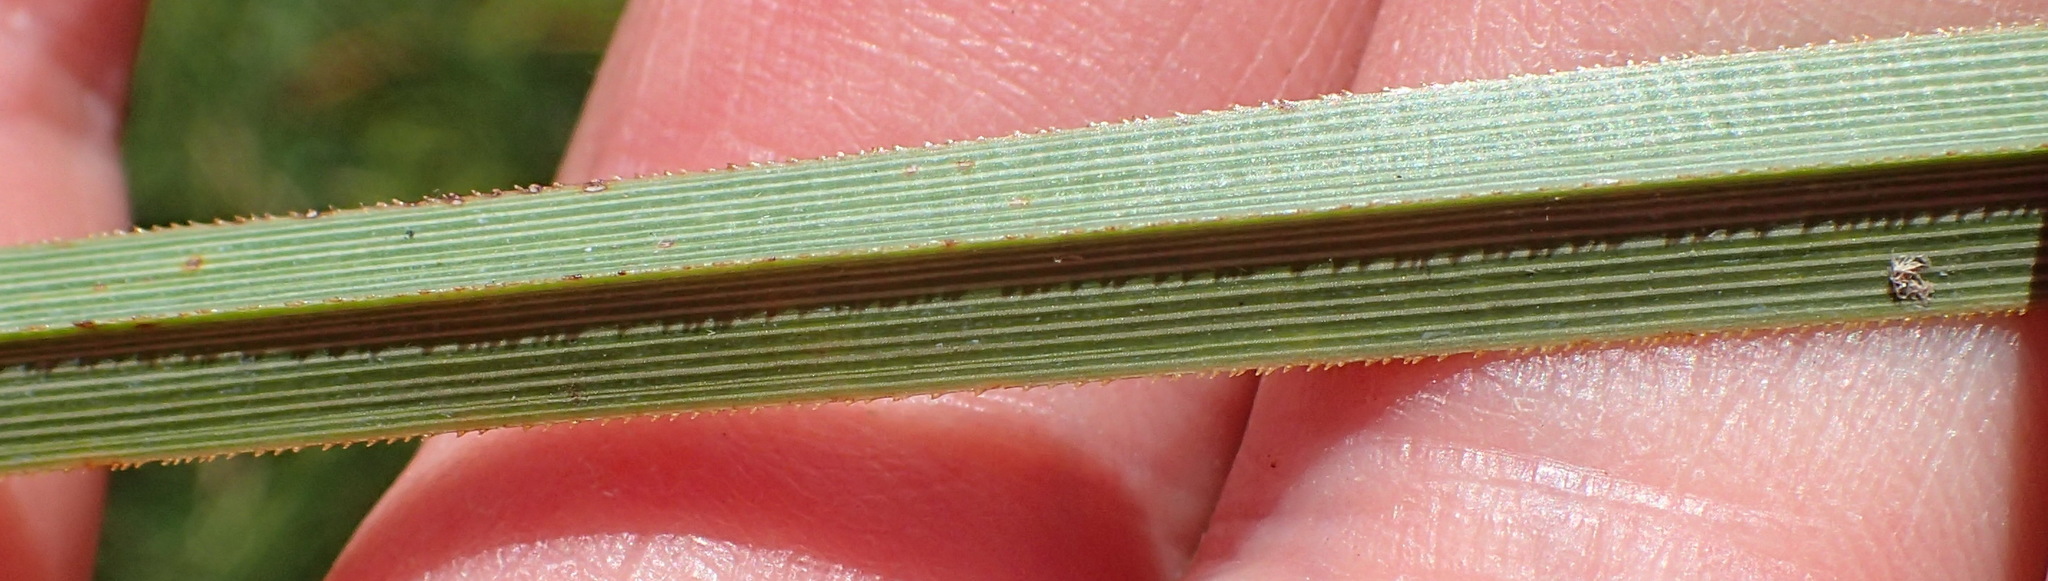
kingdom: Plantae
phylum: Tracheophyta
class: Liliopsida
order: Poales
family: Poaceae
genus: Cortaderia
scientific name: Cortaderia selloana
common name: Uruguayan pampas grass
